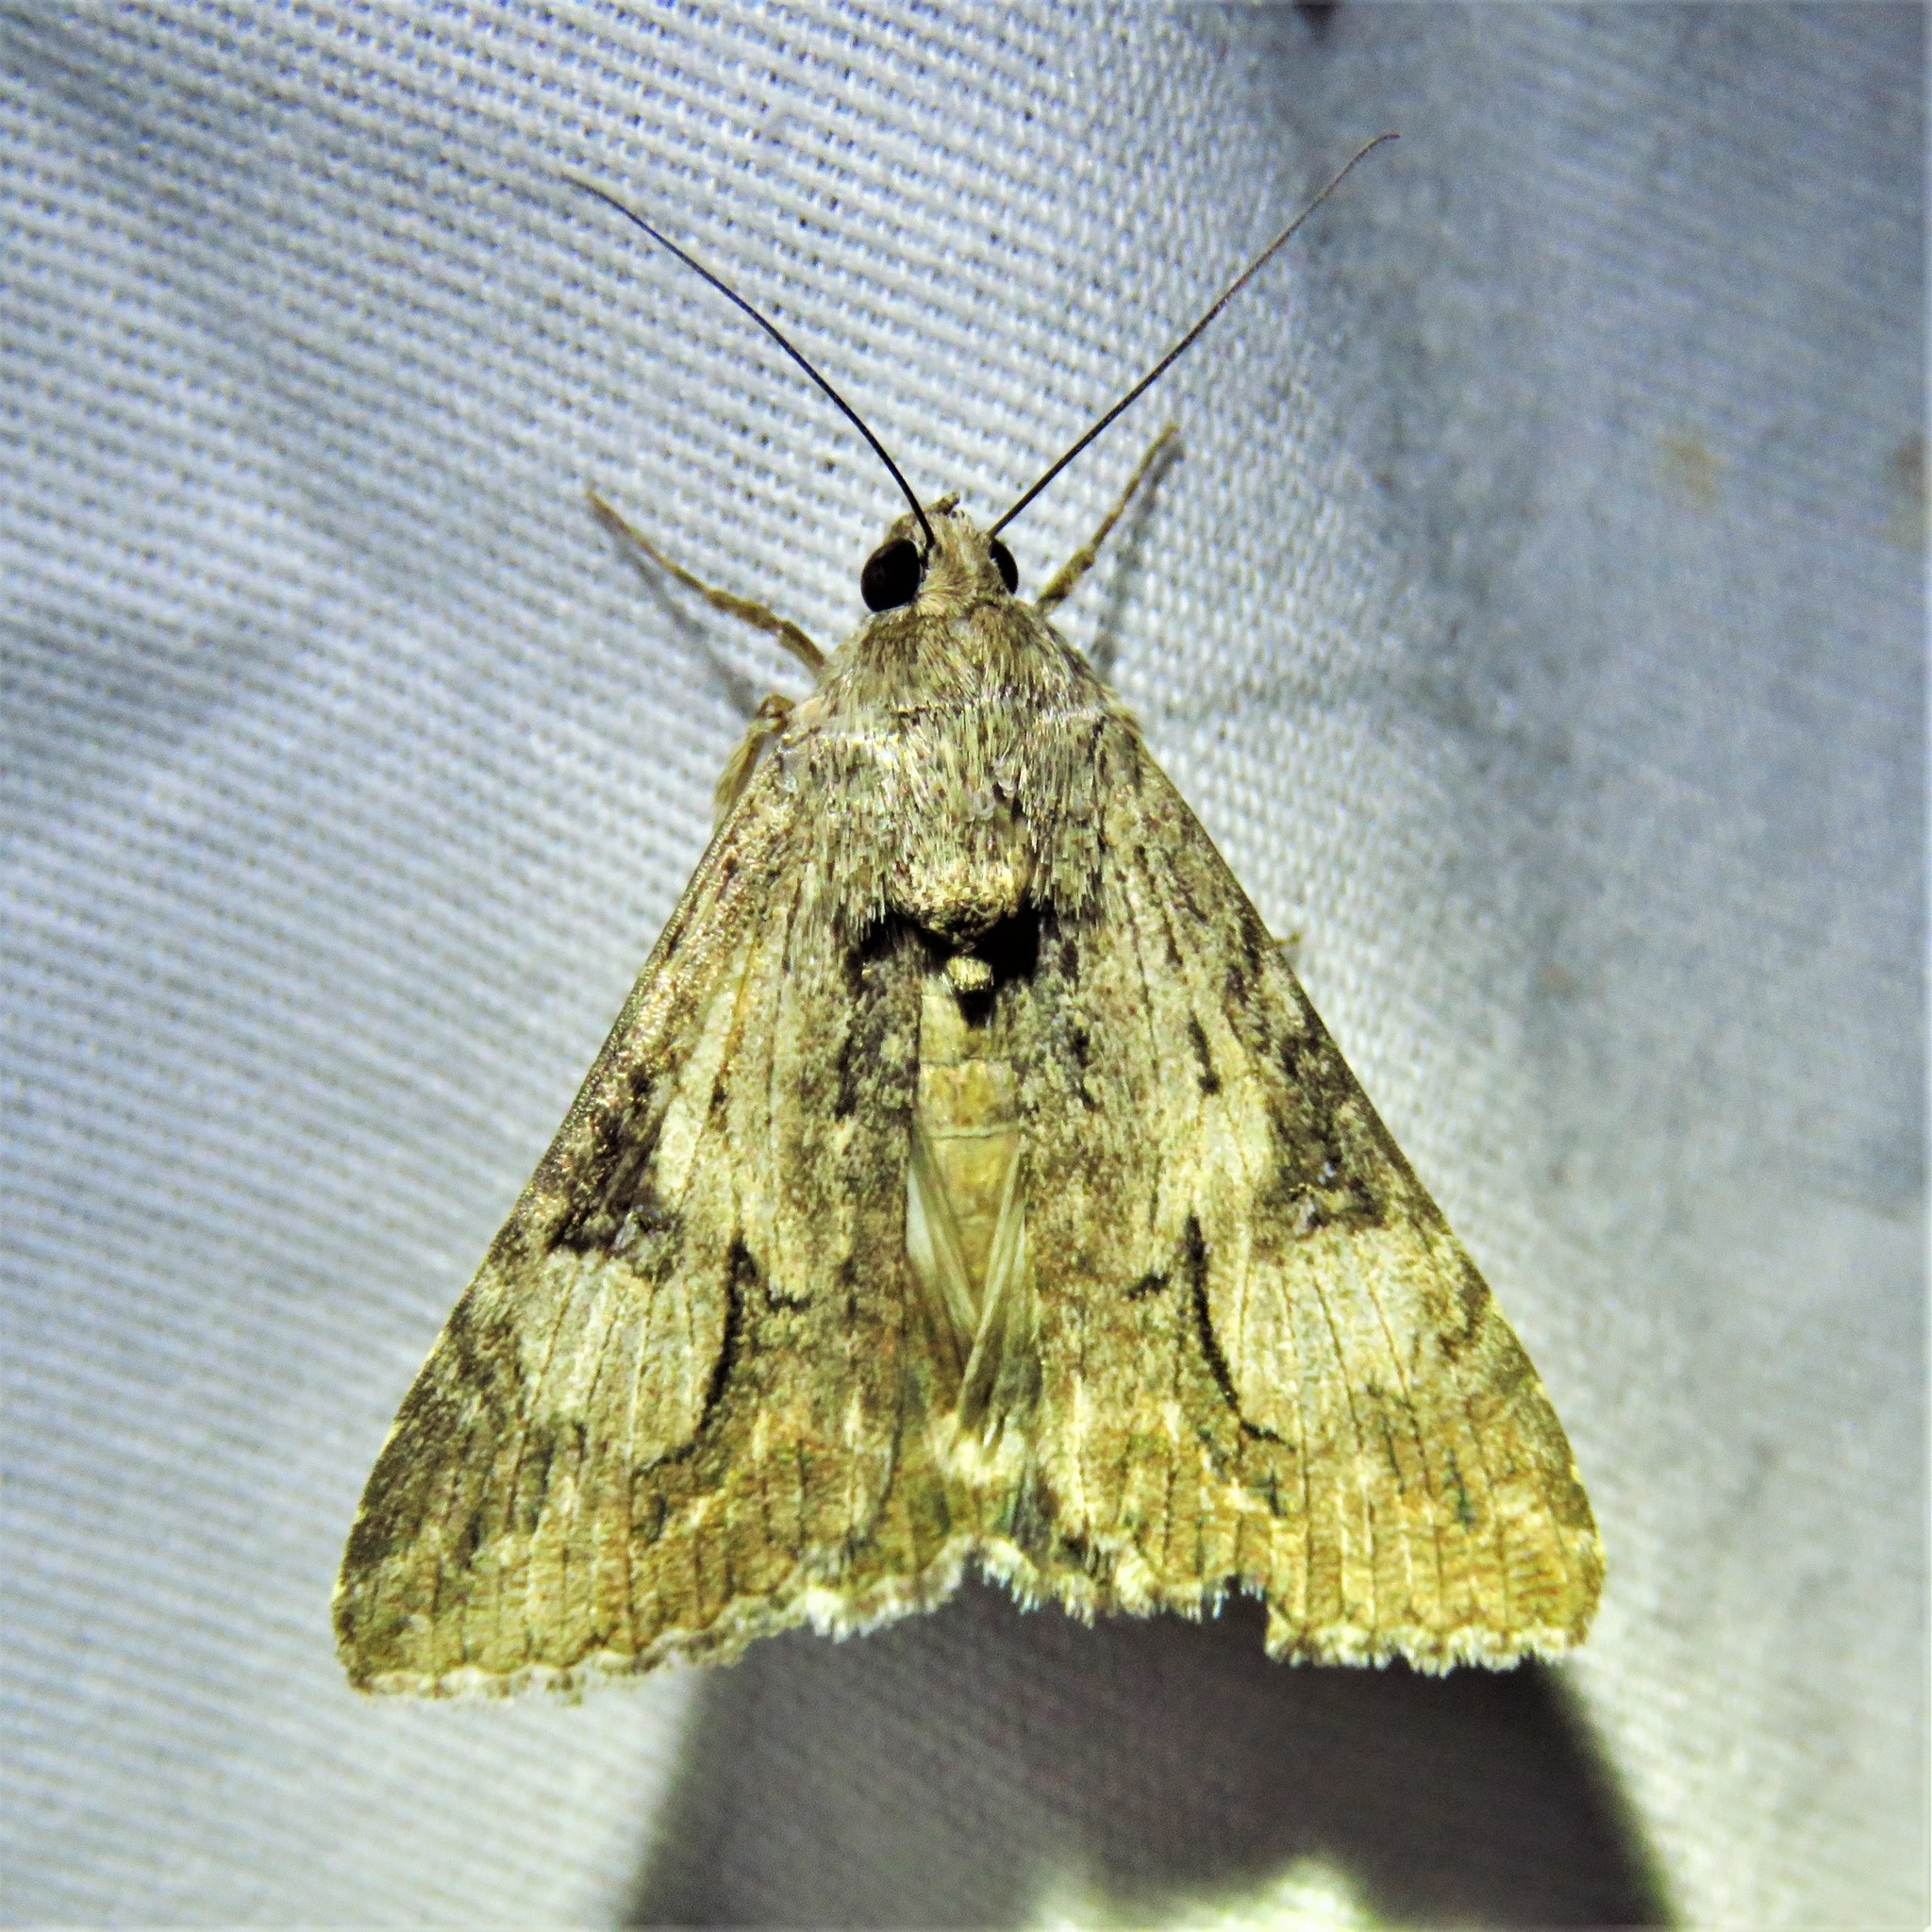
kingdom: Animalia
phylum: Arthropoda
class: Insecta
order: Lepidoptera
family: Erebidae
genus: Melipotis
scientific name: Melipotis jucunda
